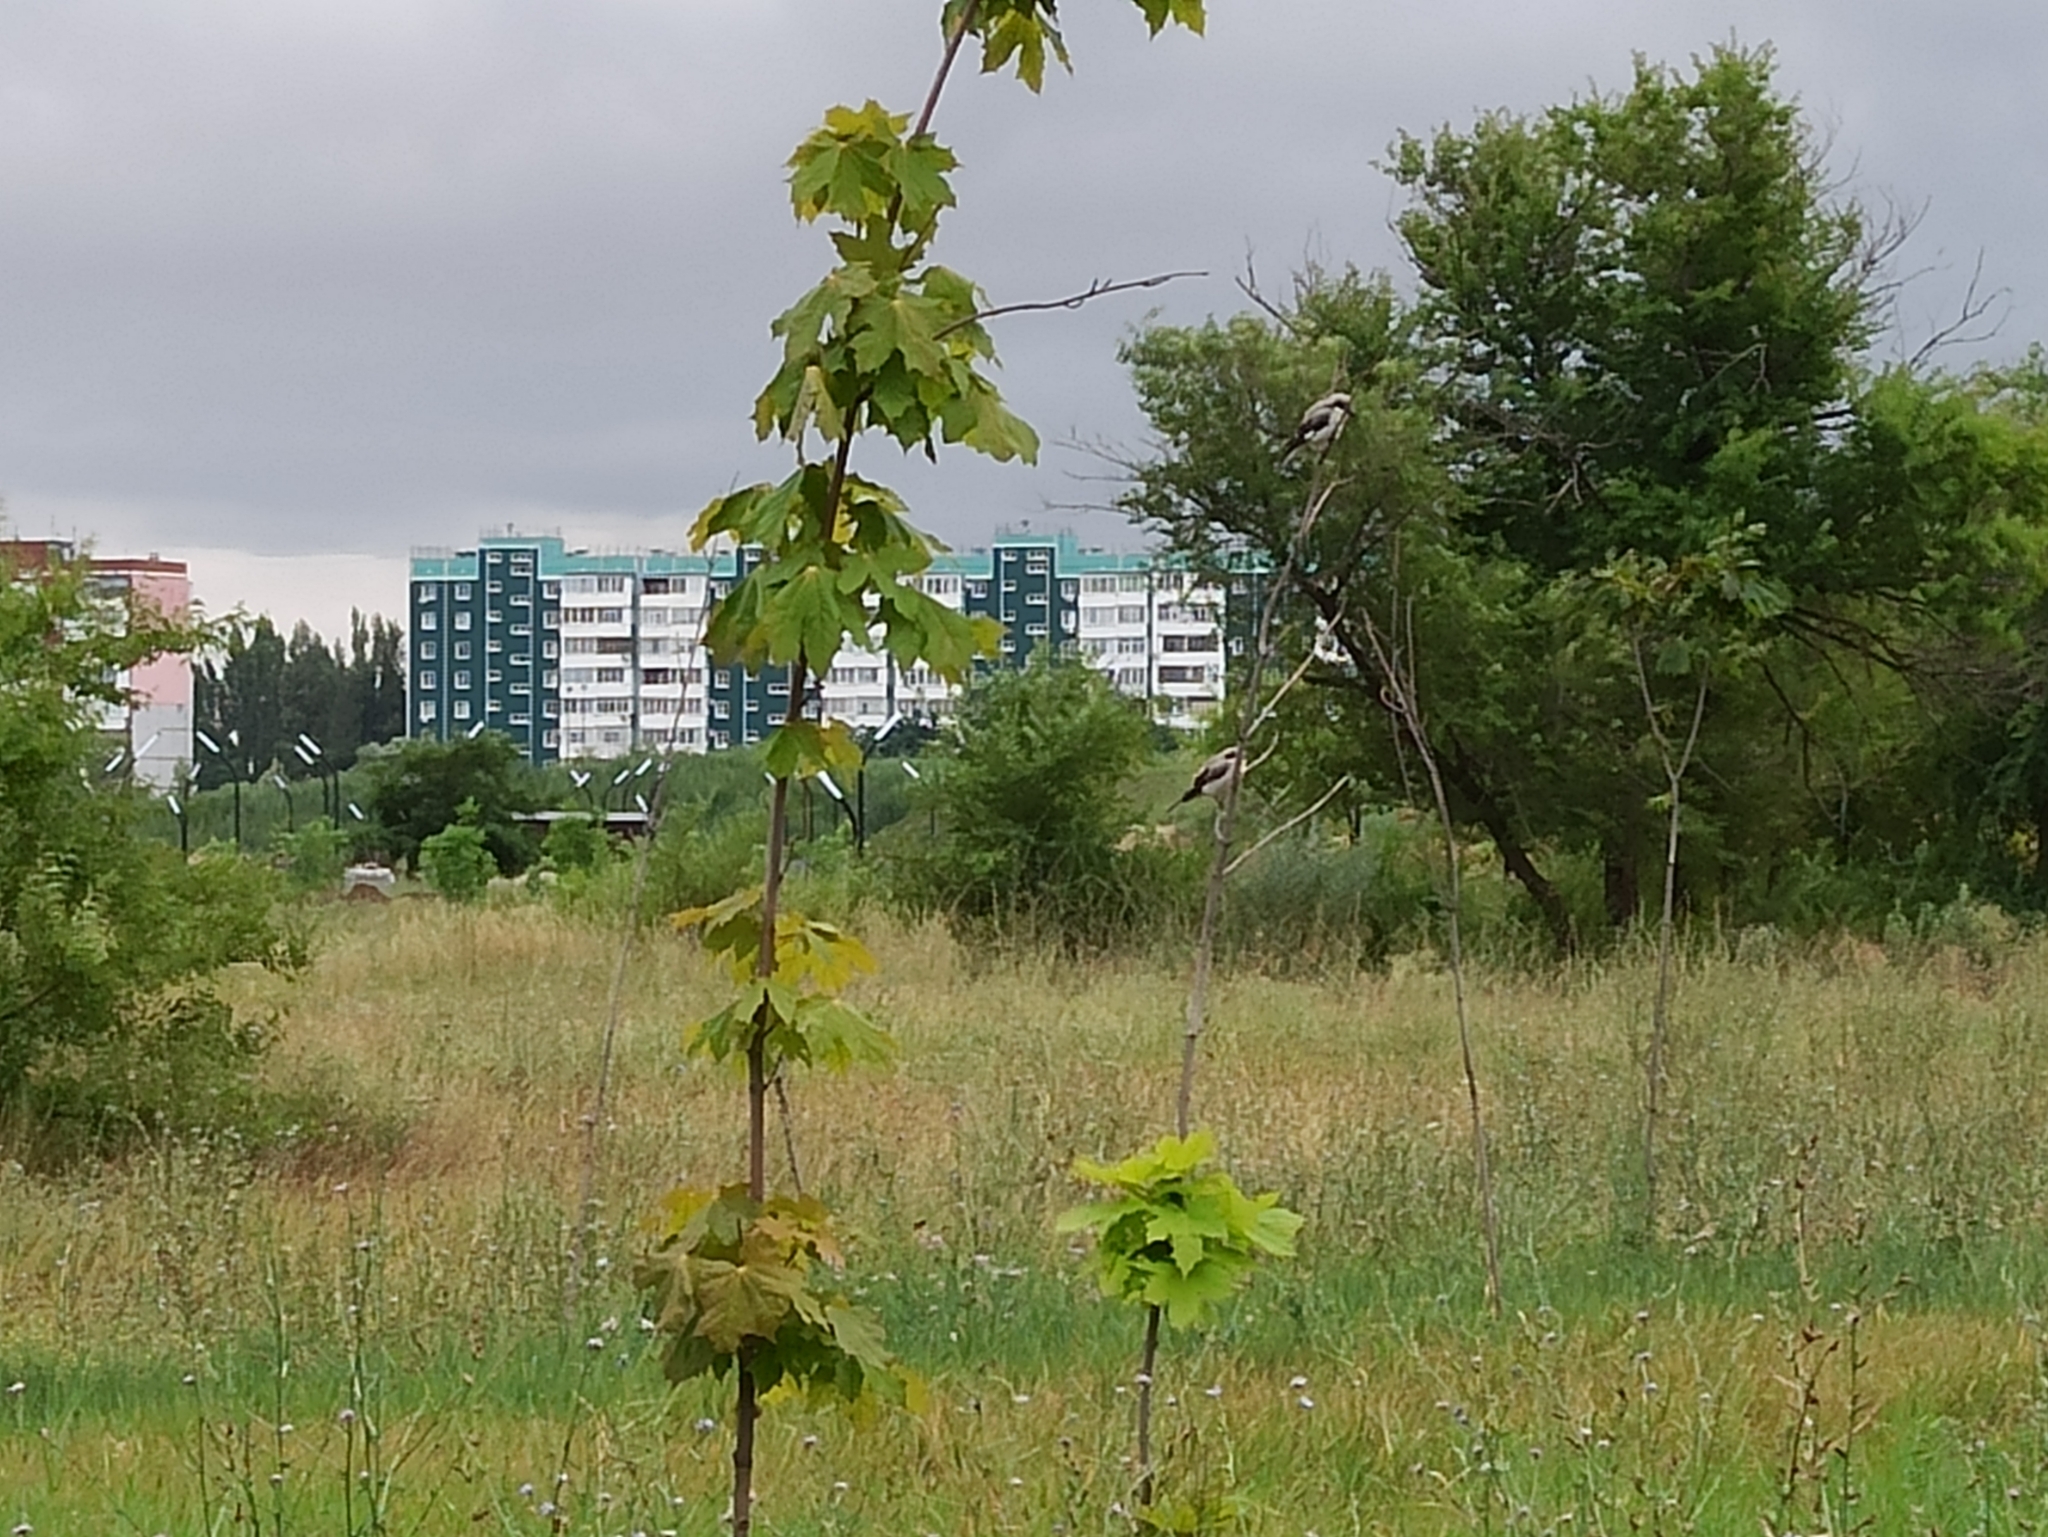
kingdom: Animalia
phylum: Chordata
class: Aves
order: Passeriformes
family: Laniidae
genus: Lanius
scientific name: Lanius minor
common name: Lesser grey shrike
